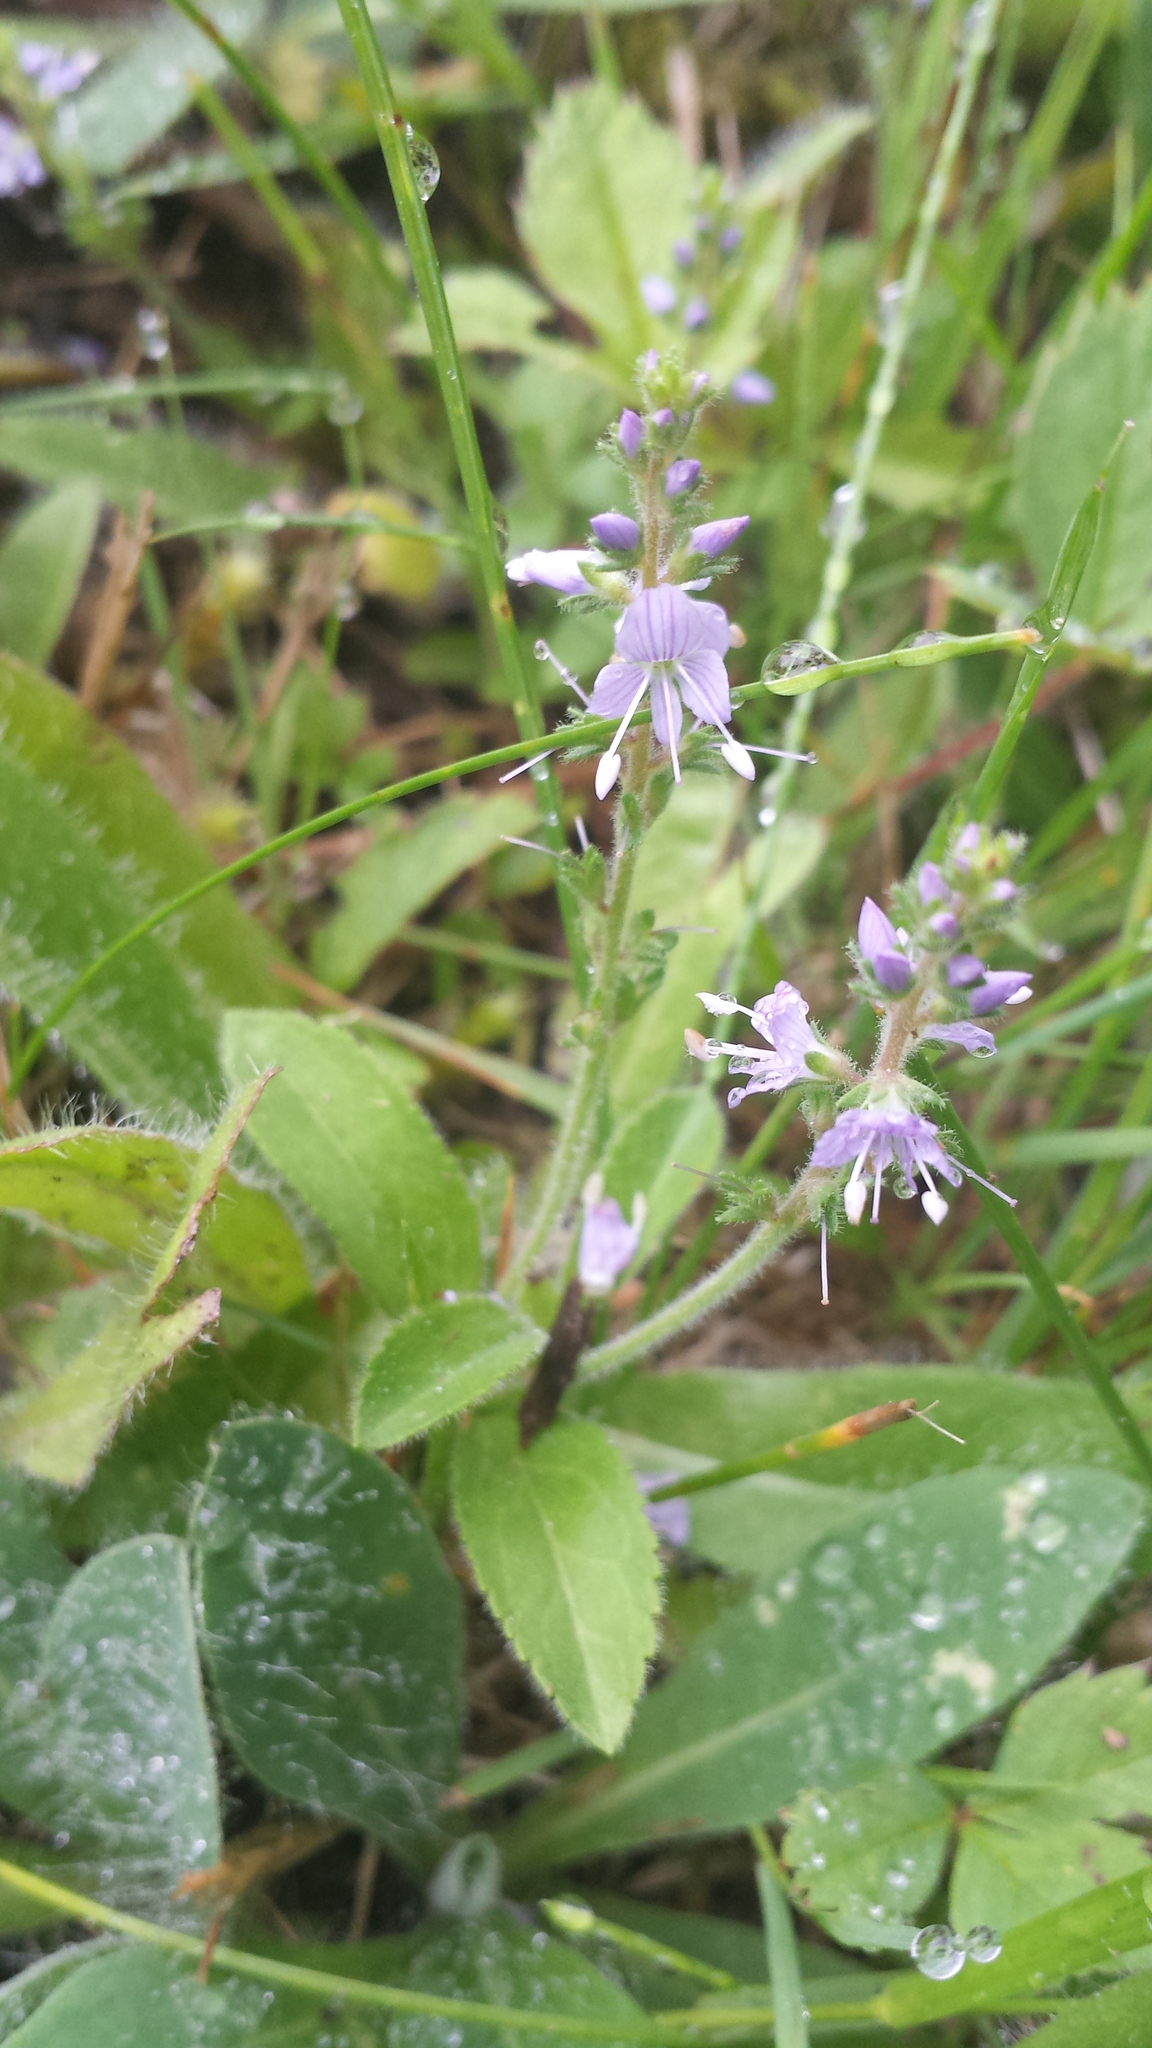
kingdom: Plantae
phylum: Tracheophyta
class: Magnoliopsida
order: Lamiales
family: Plantaginaceae
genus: Veronica
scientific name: Veronica officinalis
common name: Common speedwell
